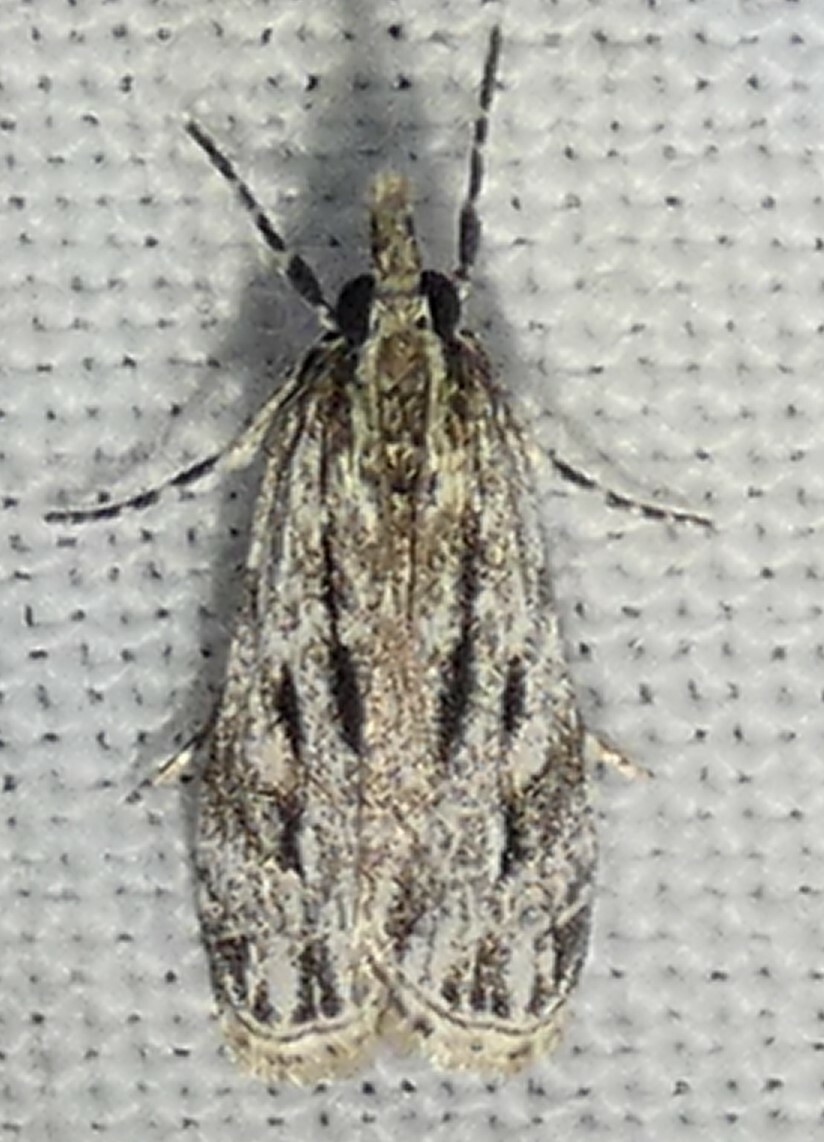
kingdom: Animalia
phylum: Arthropoda
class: Insecta
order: Lepidoptera
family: Crambidae
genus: Eudonia
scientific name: Eudonia strigalis
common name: Striped eudonia moth
